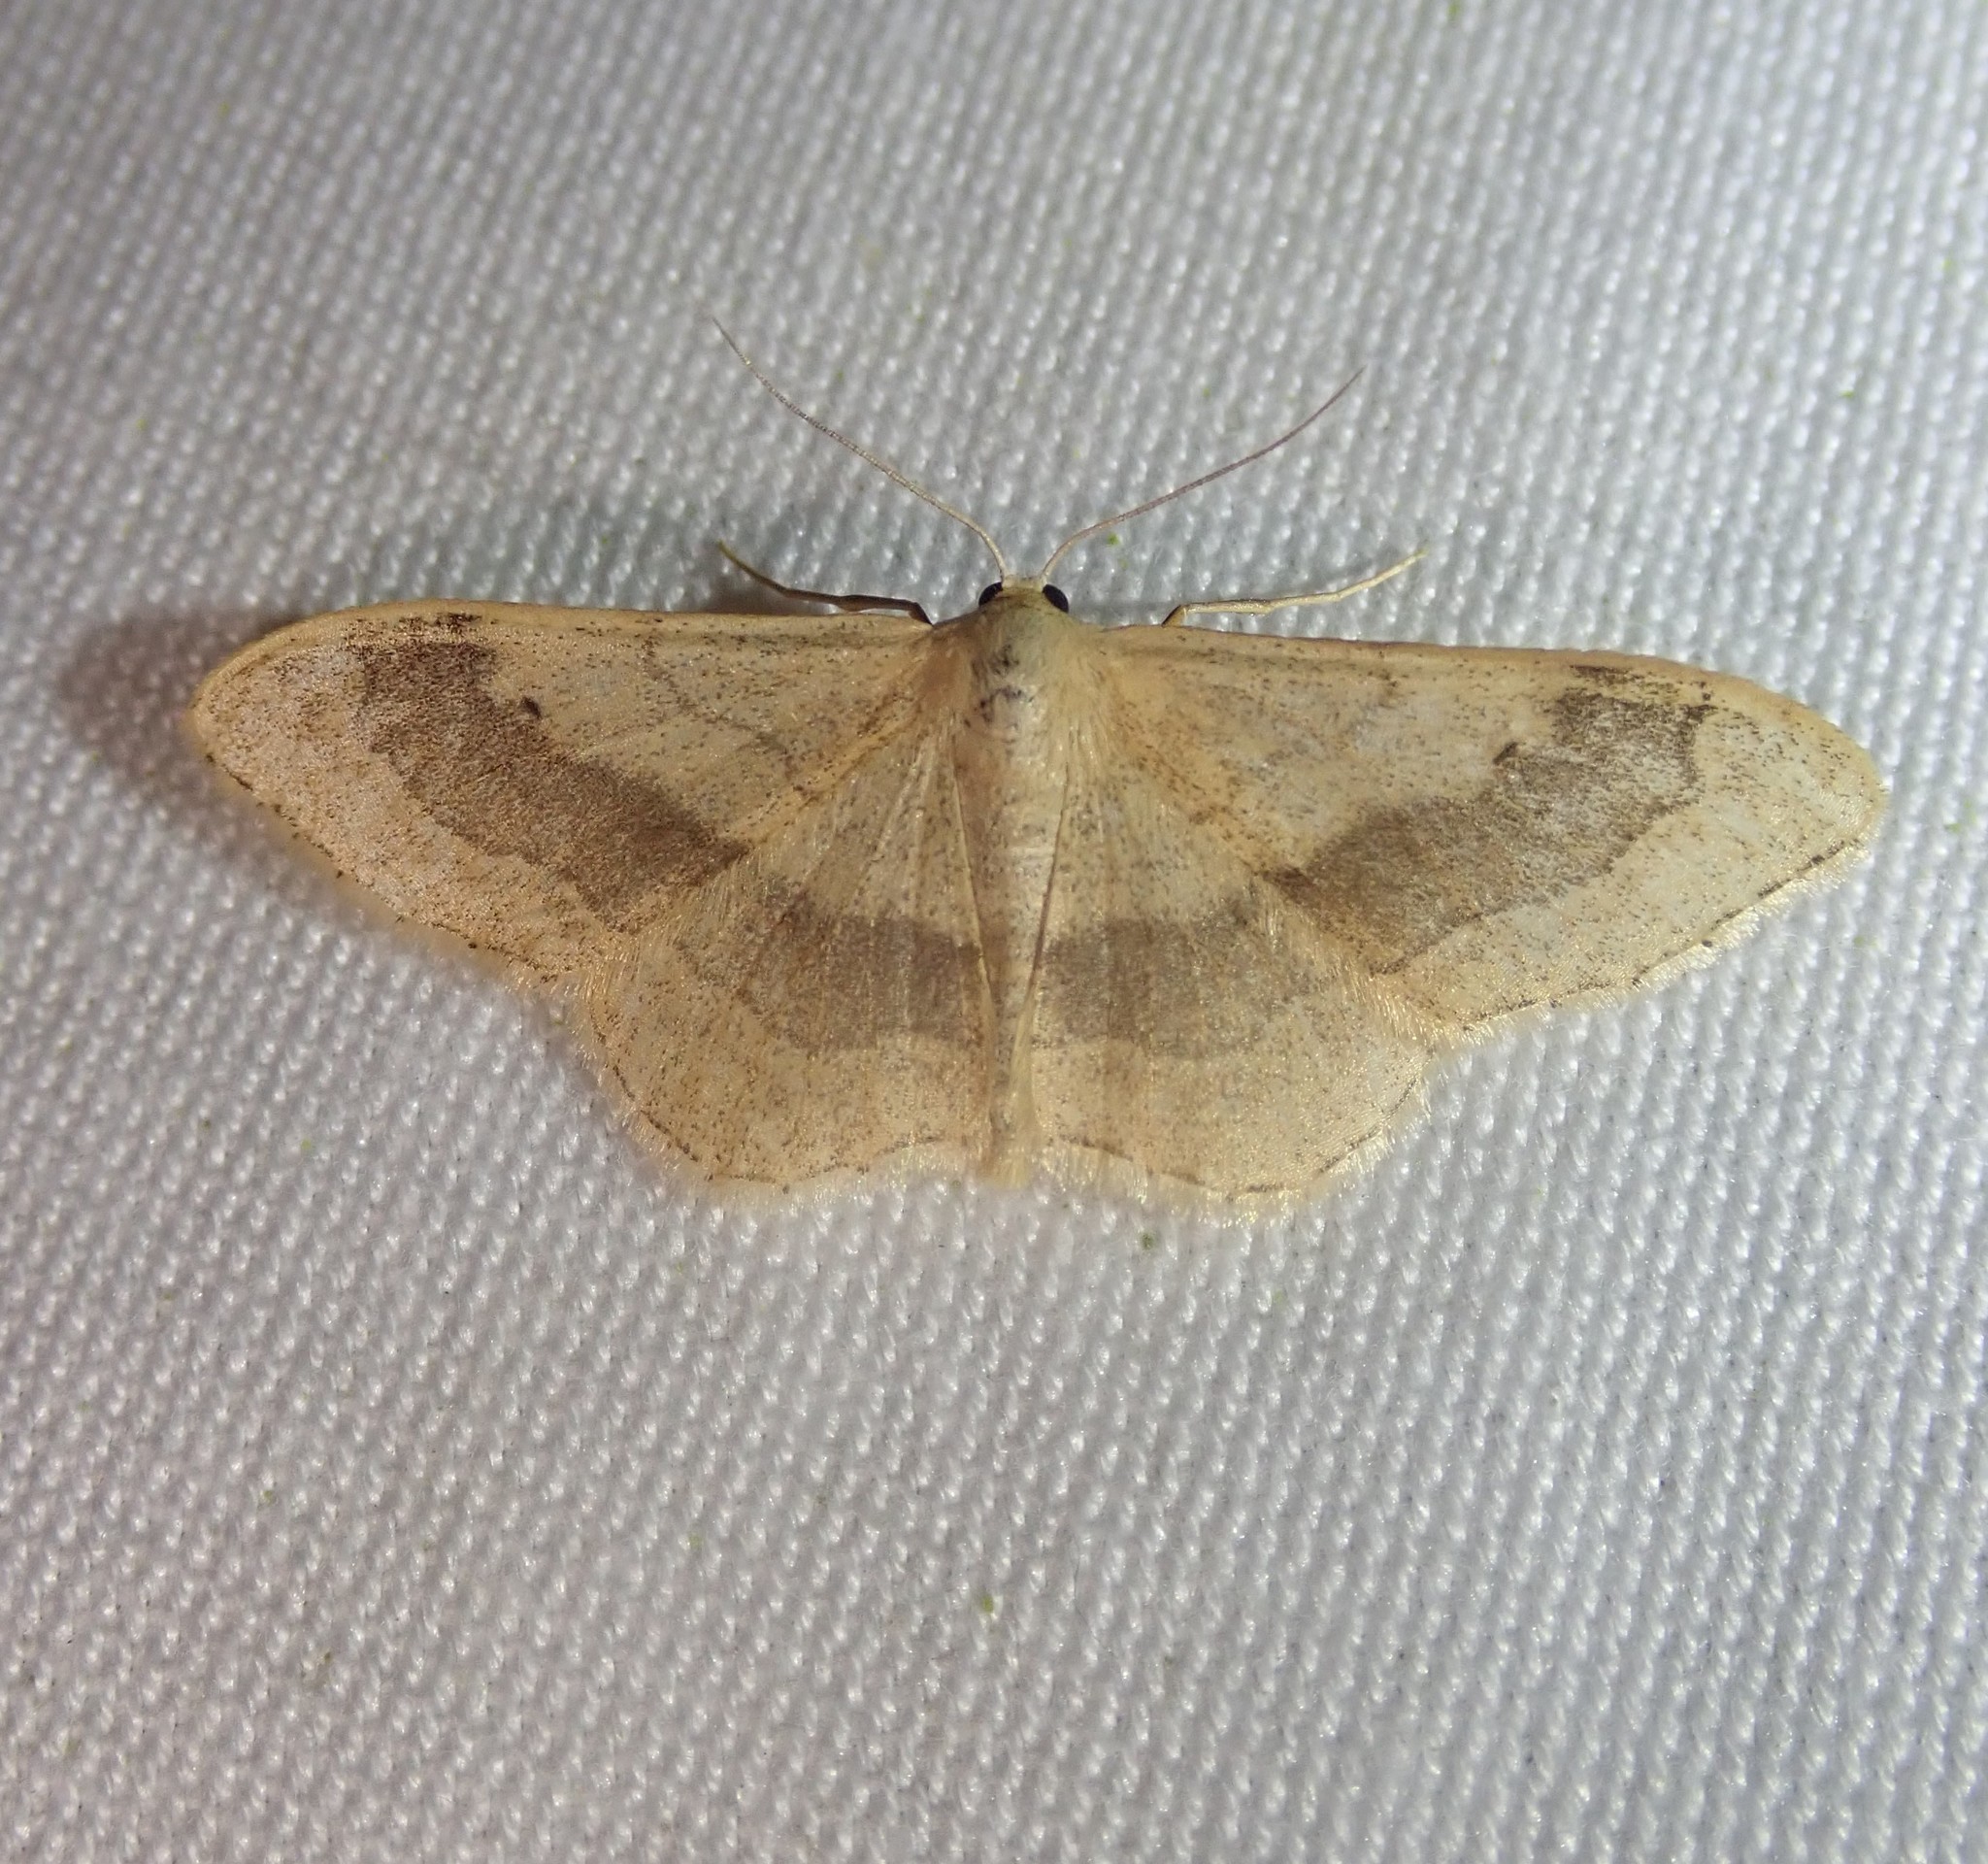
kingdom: Animalia
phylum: Arthropoda
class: Insecta
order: Lepidoptera
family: Geometridae
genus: Idaea
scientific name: Idaea aversata
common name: Riband wave
